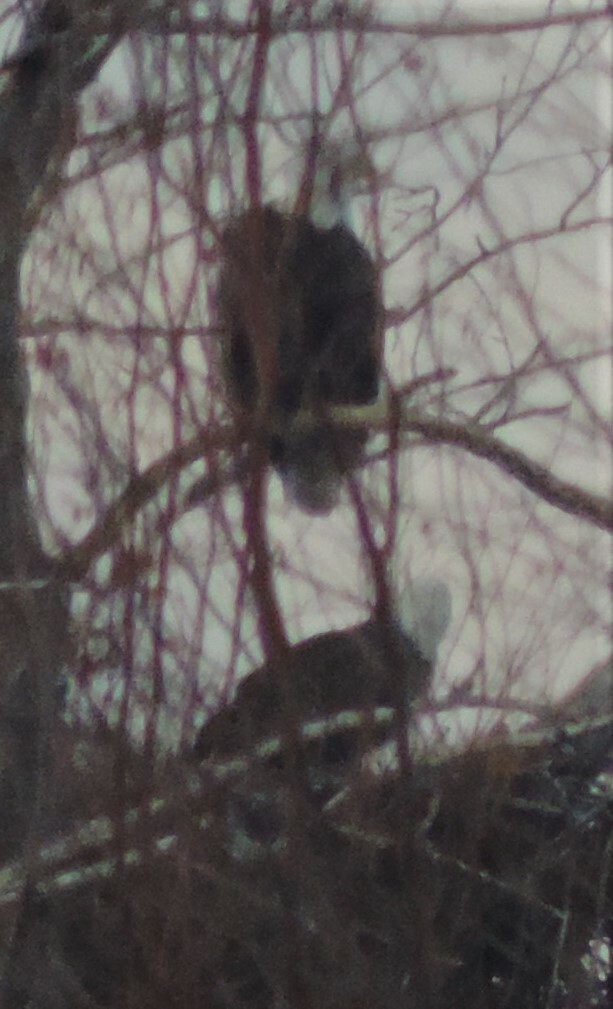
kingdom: Animalia
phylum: Chordata
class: Aves
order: Accipitriformes
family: Accipitridae
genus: Haliaeetus
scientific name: Haliaeetus leucocephalus
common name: Bald eagle
